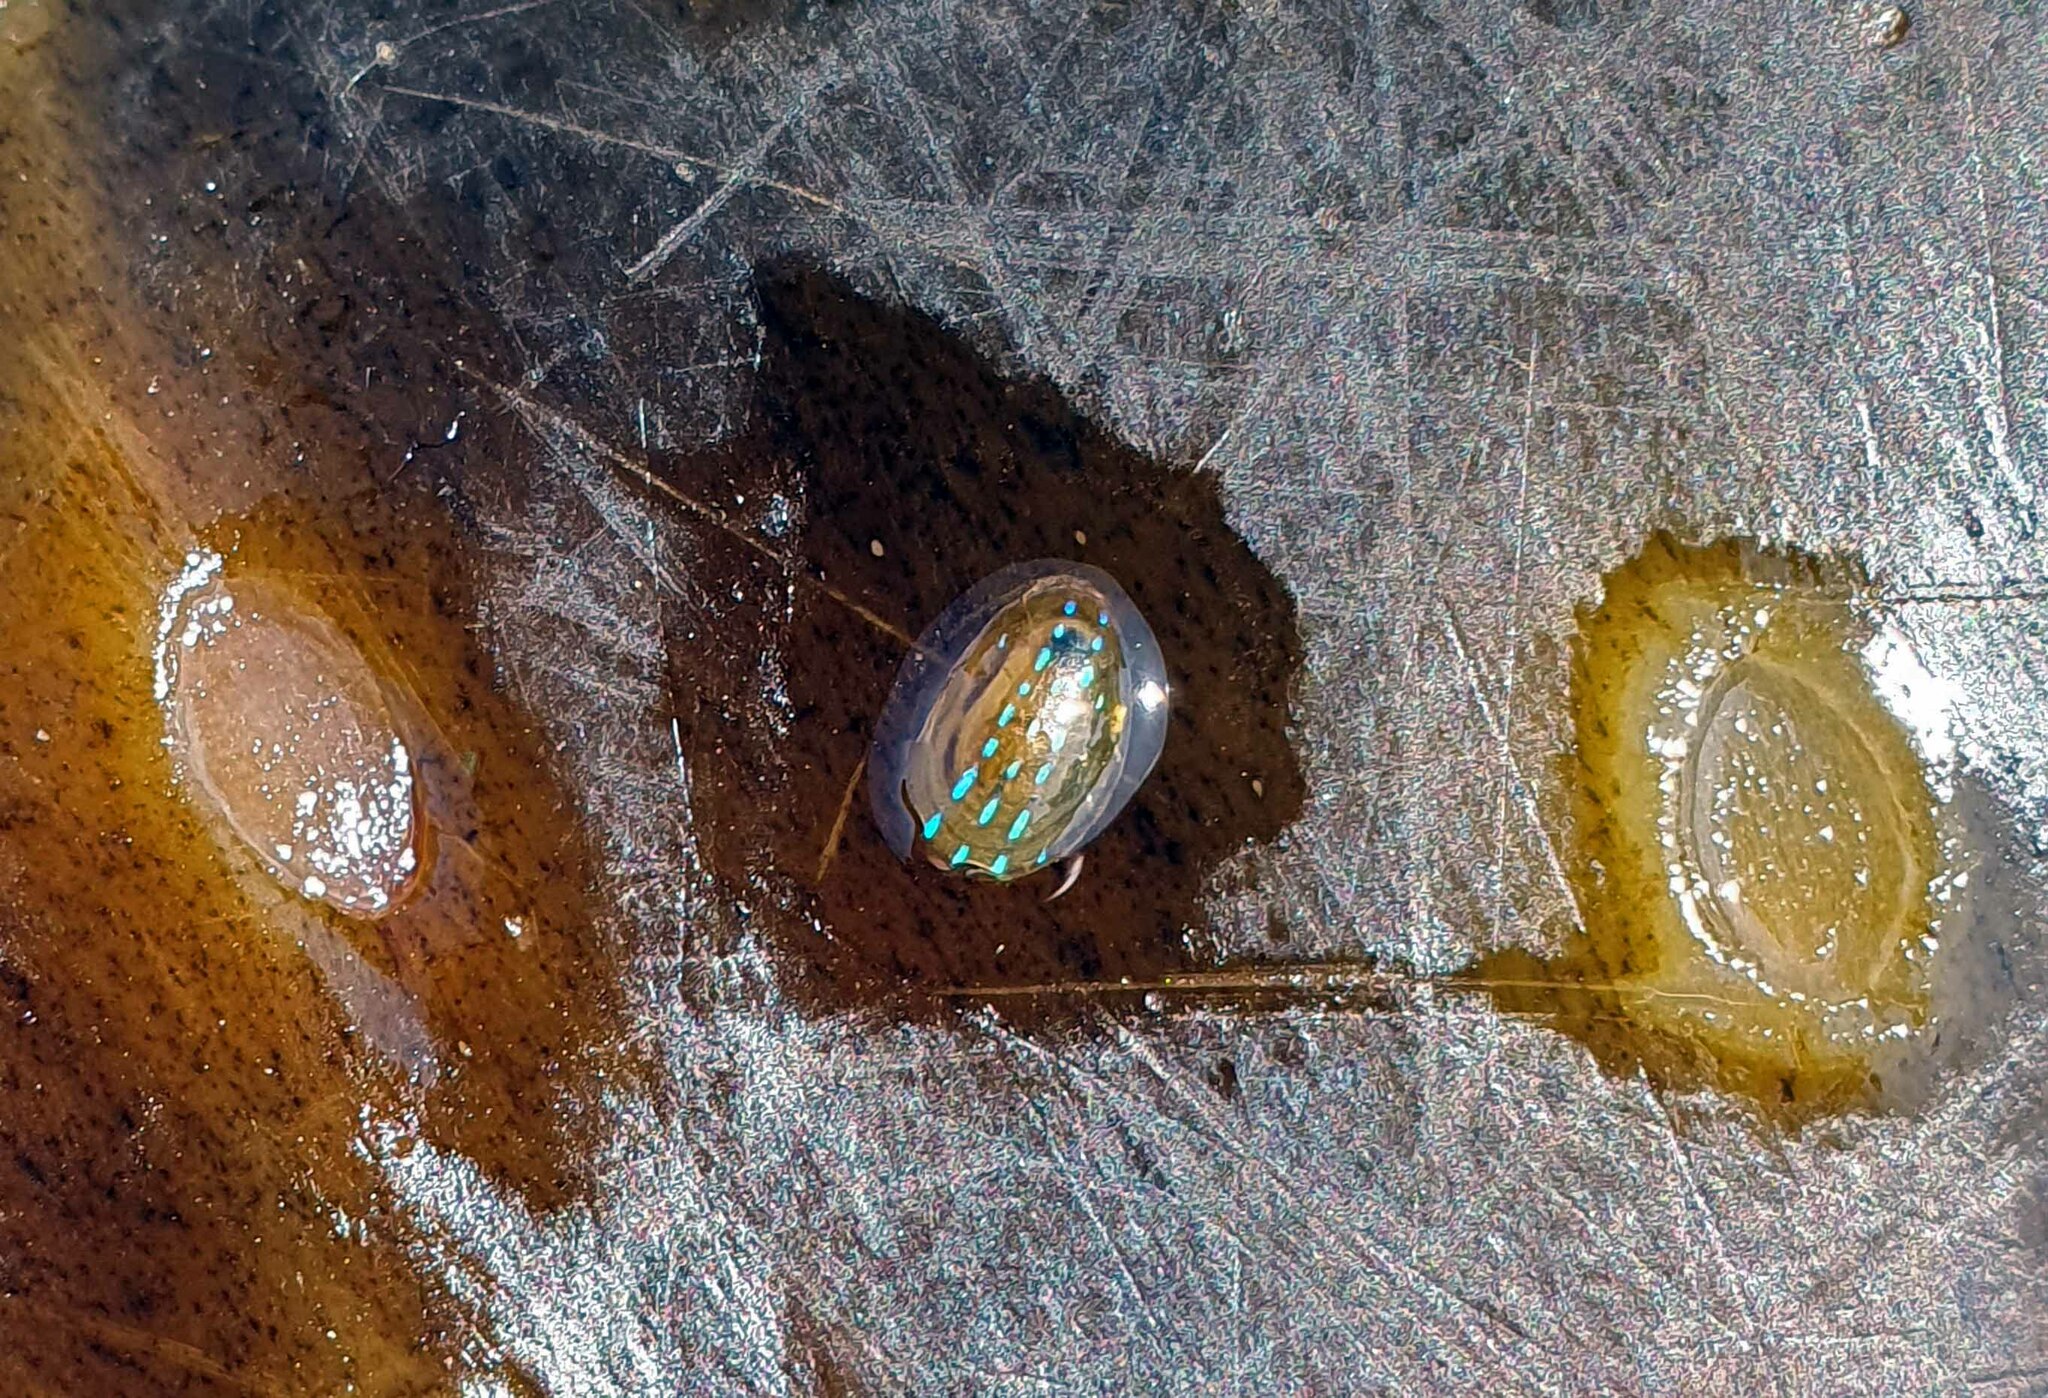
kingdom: Animalia
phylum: Mollusca
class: Gastropoda
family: Patellidae
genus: Patella
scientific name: Patella pellucida
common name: Blue-rayed limpet
